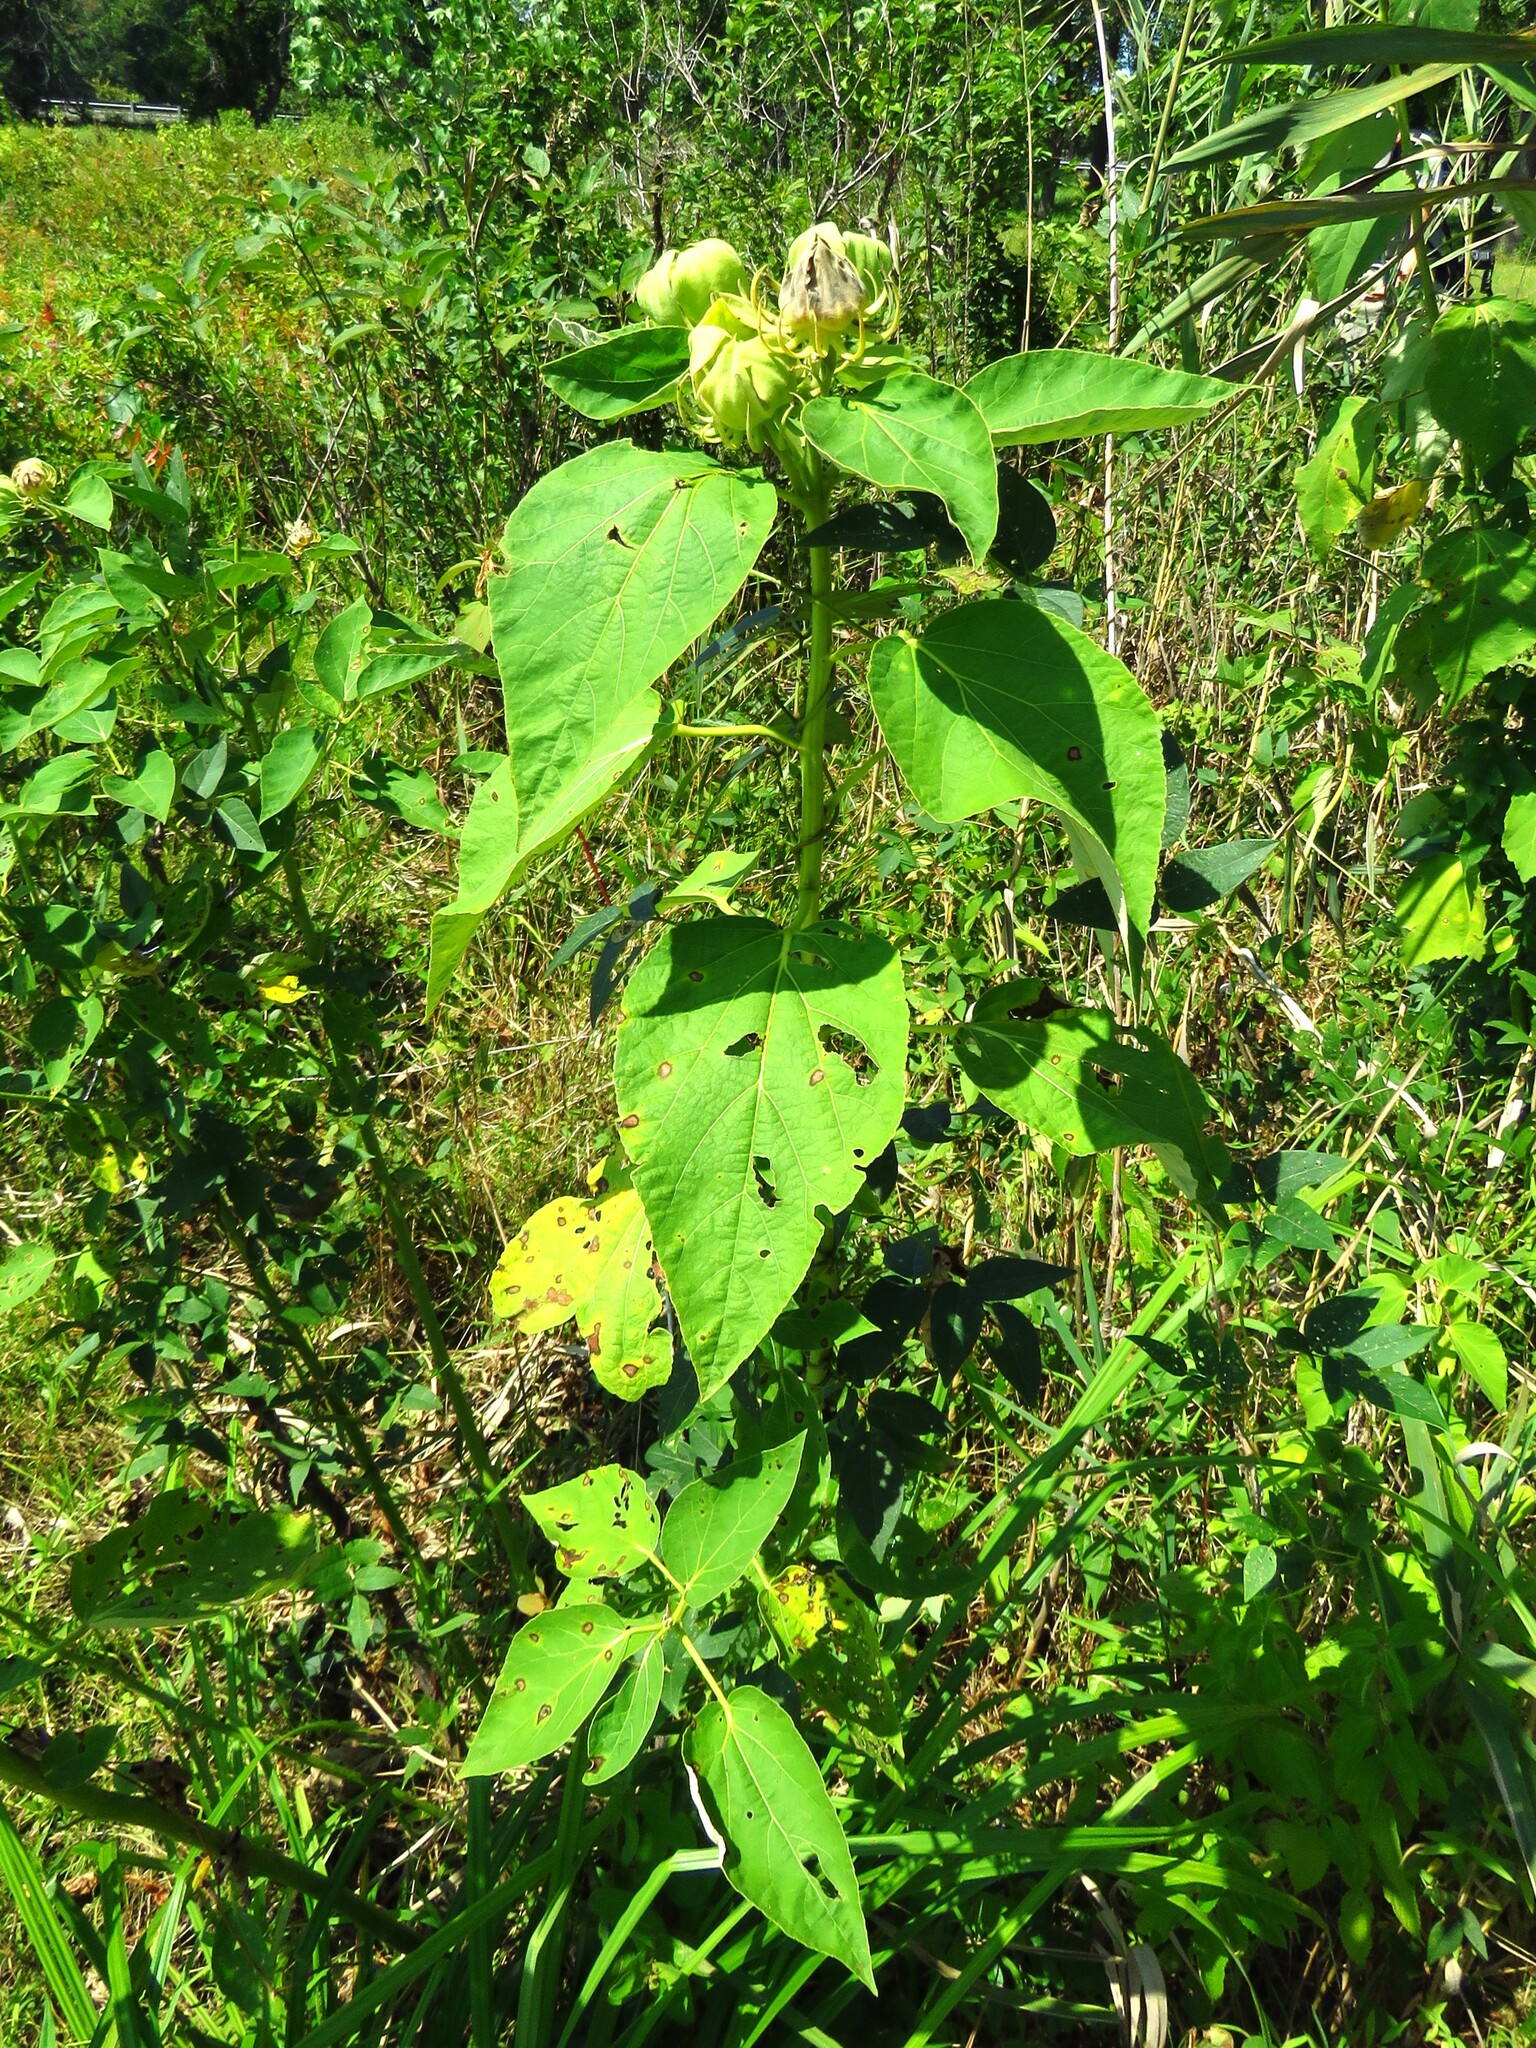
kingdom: Plantae
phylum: Tracheophyta
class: Magnoliopsida
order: Malvales
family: Malvaceae
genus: Hibiscus
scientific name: Hibiscus moscheutos
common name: Common rose-mallow
